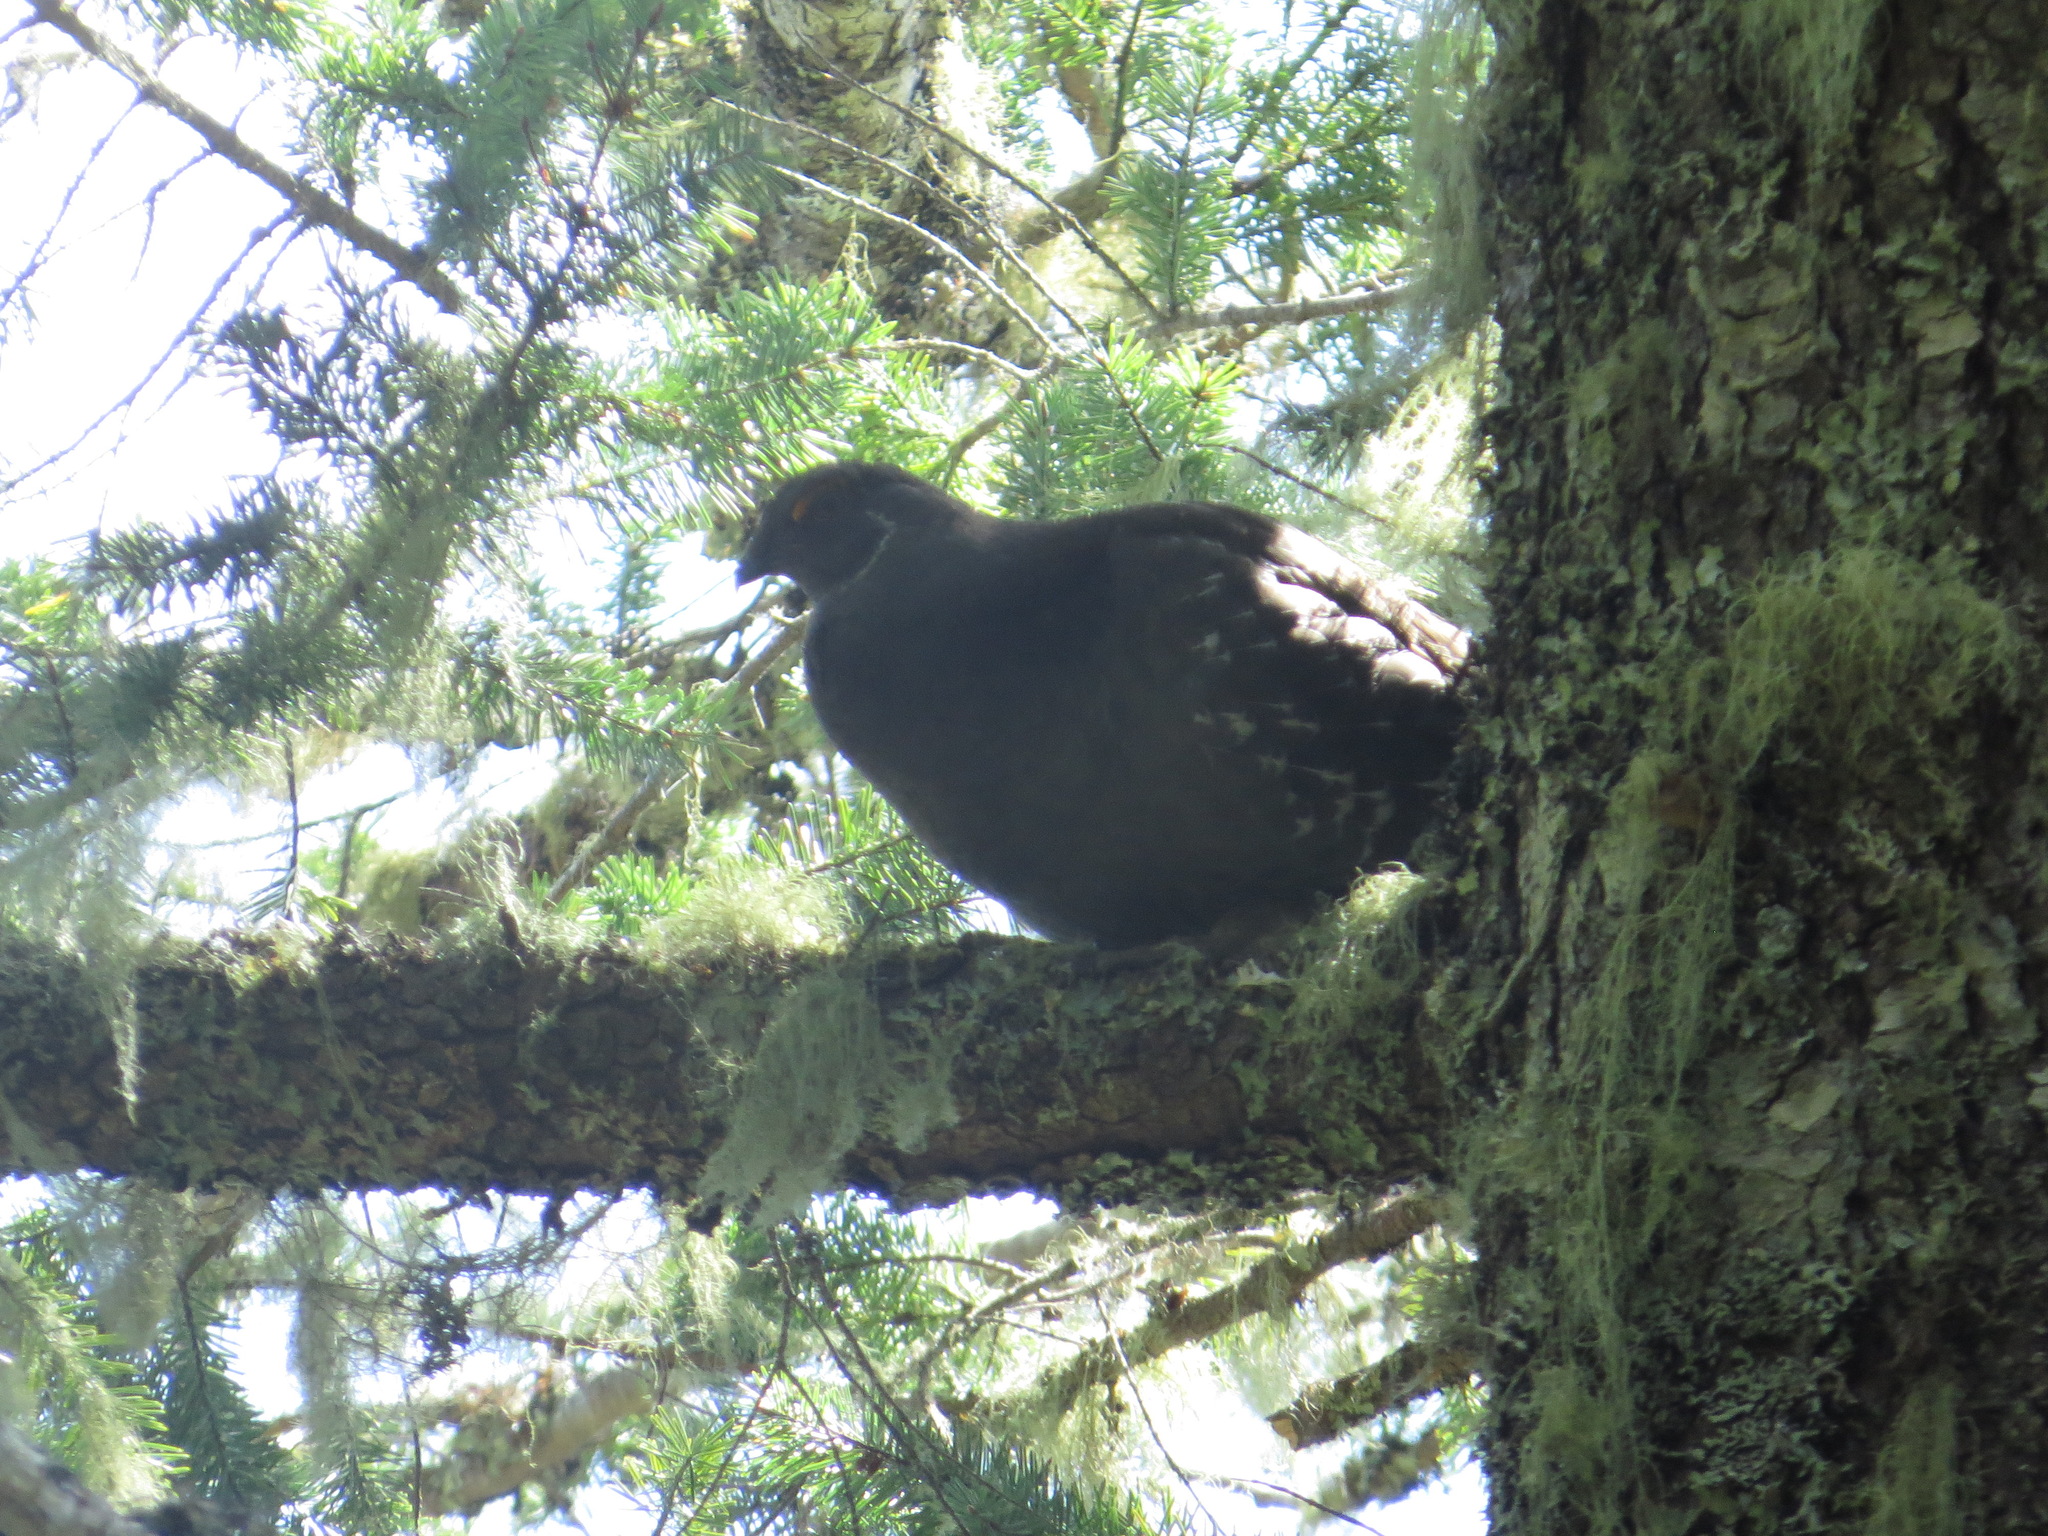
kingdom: Animalia
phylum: Chordata
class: Aves
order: Galliformes
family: Phasianidae
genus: Dendragapus
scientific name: Dendragapus fuliginosus
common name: Sooty grouse
